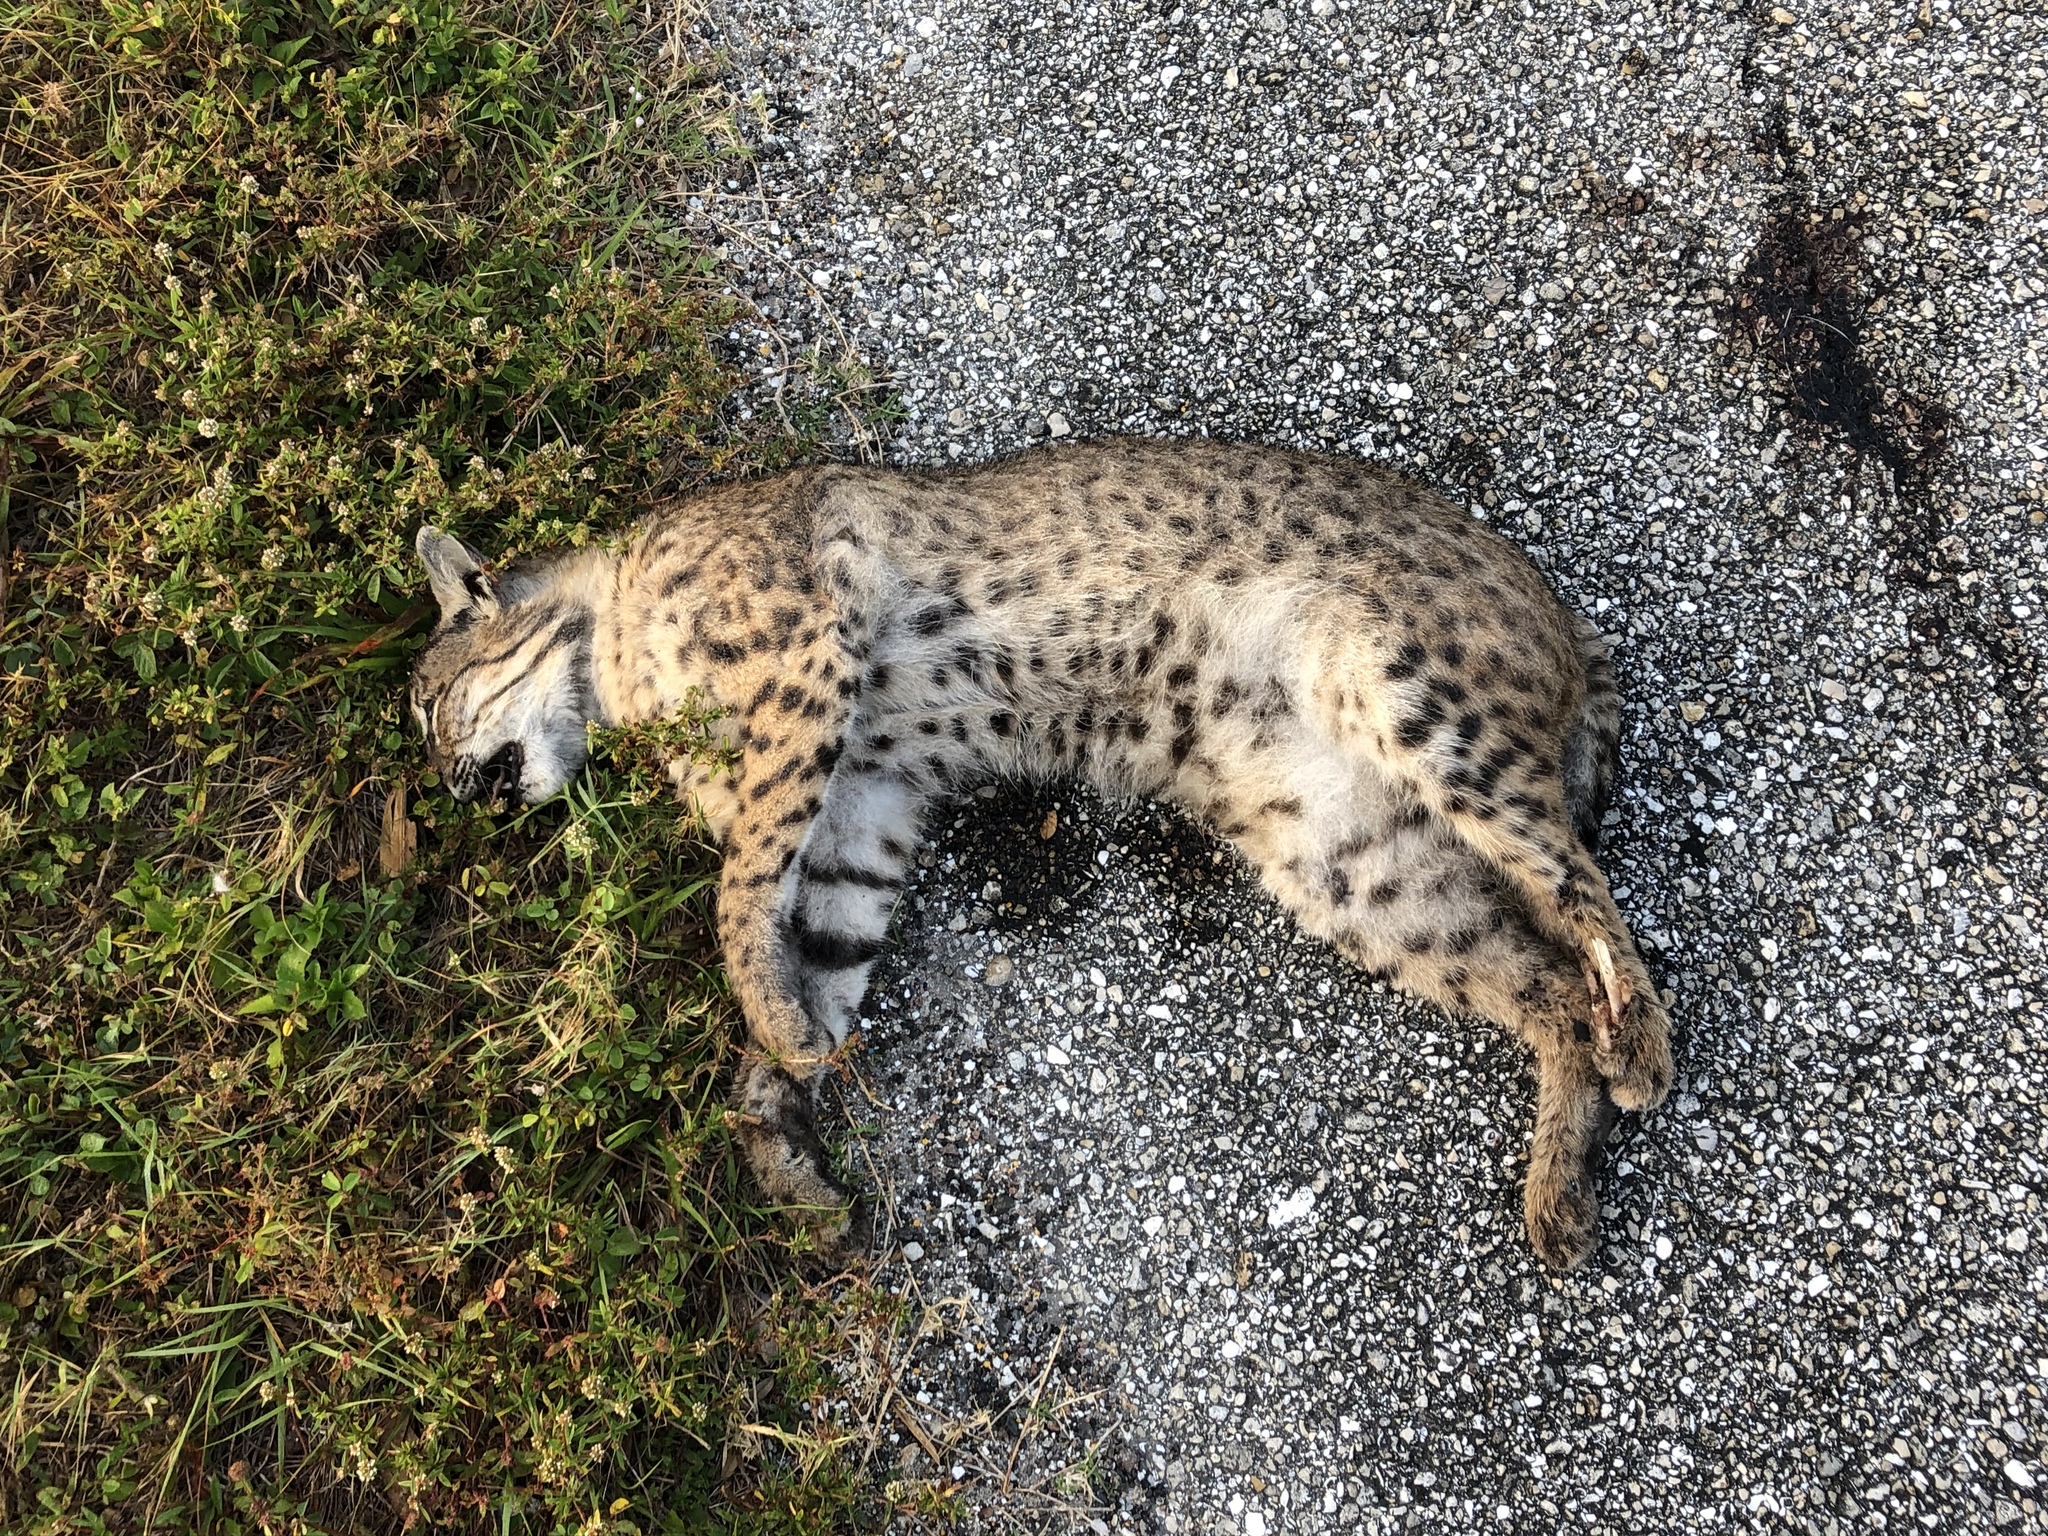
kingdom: Animalia
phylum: Chordata
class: Mammalia
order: Carnivora
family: Felidae
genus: Lynx
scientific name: Lynx rufus
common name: Bobcat
